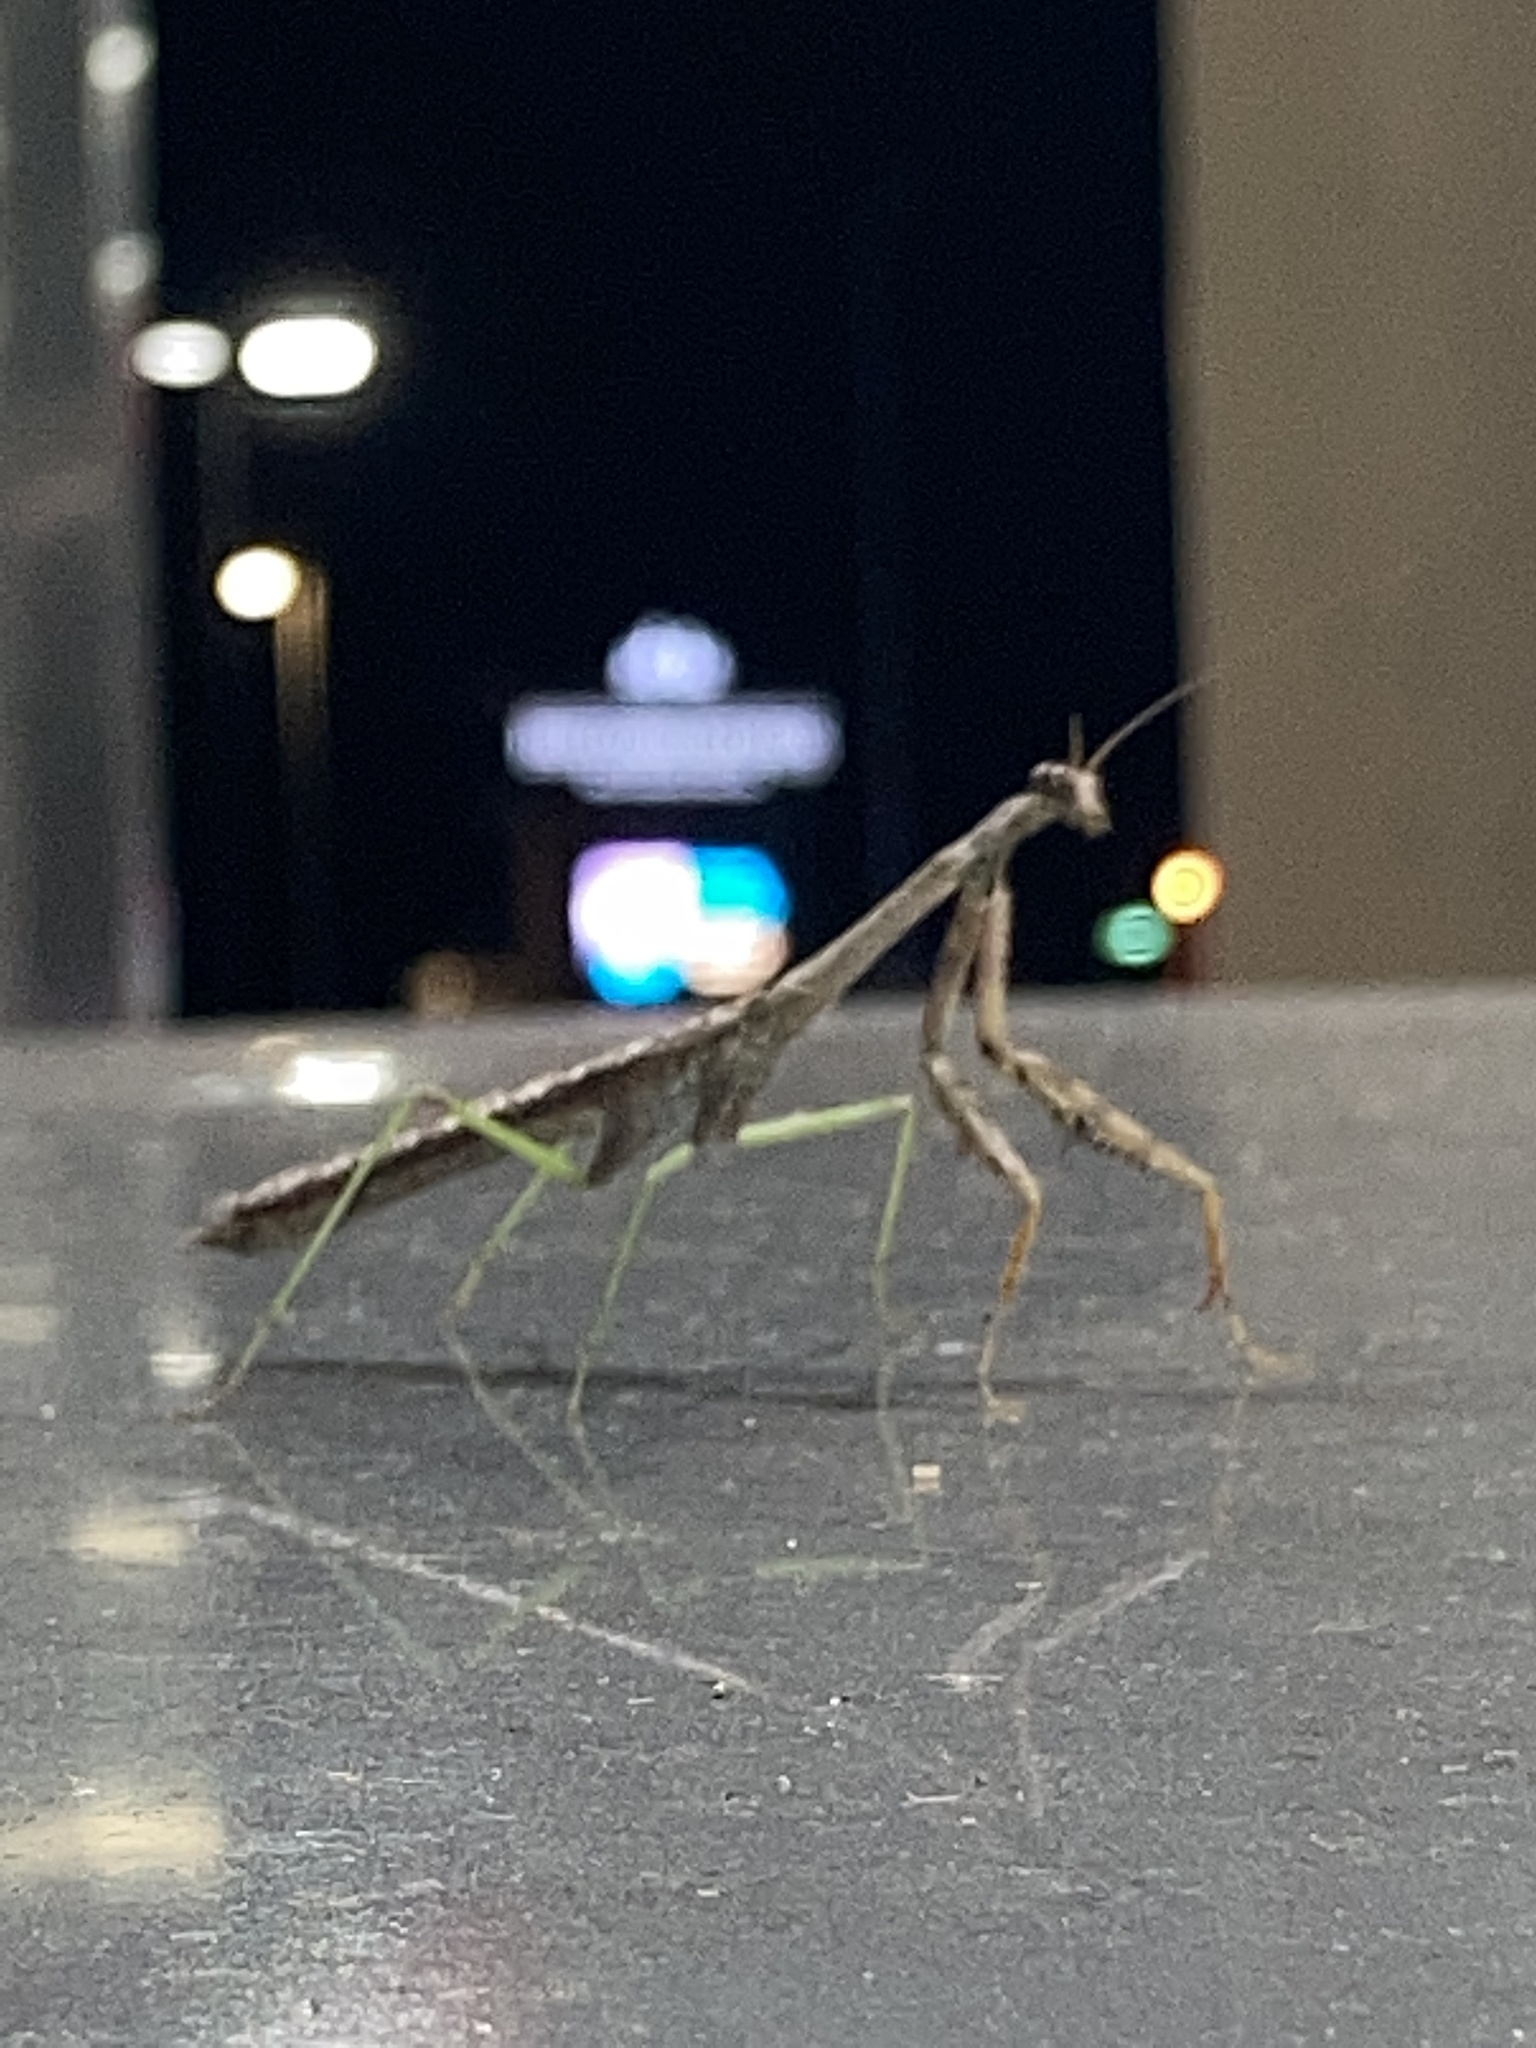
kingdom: Animalia
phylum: Arthropoda
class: Insecta
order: Mantodea
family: Mantidae
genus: Stagmomantis
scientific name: Stagmomantis carolina
